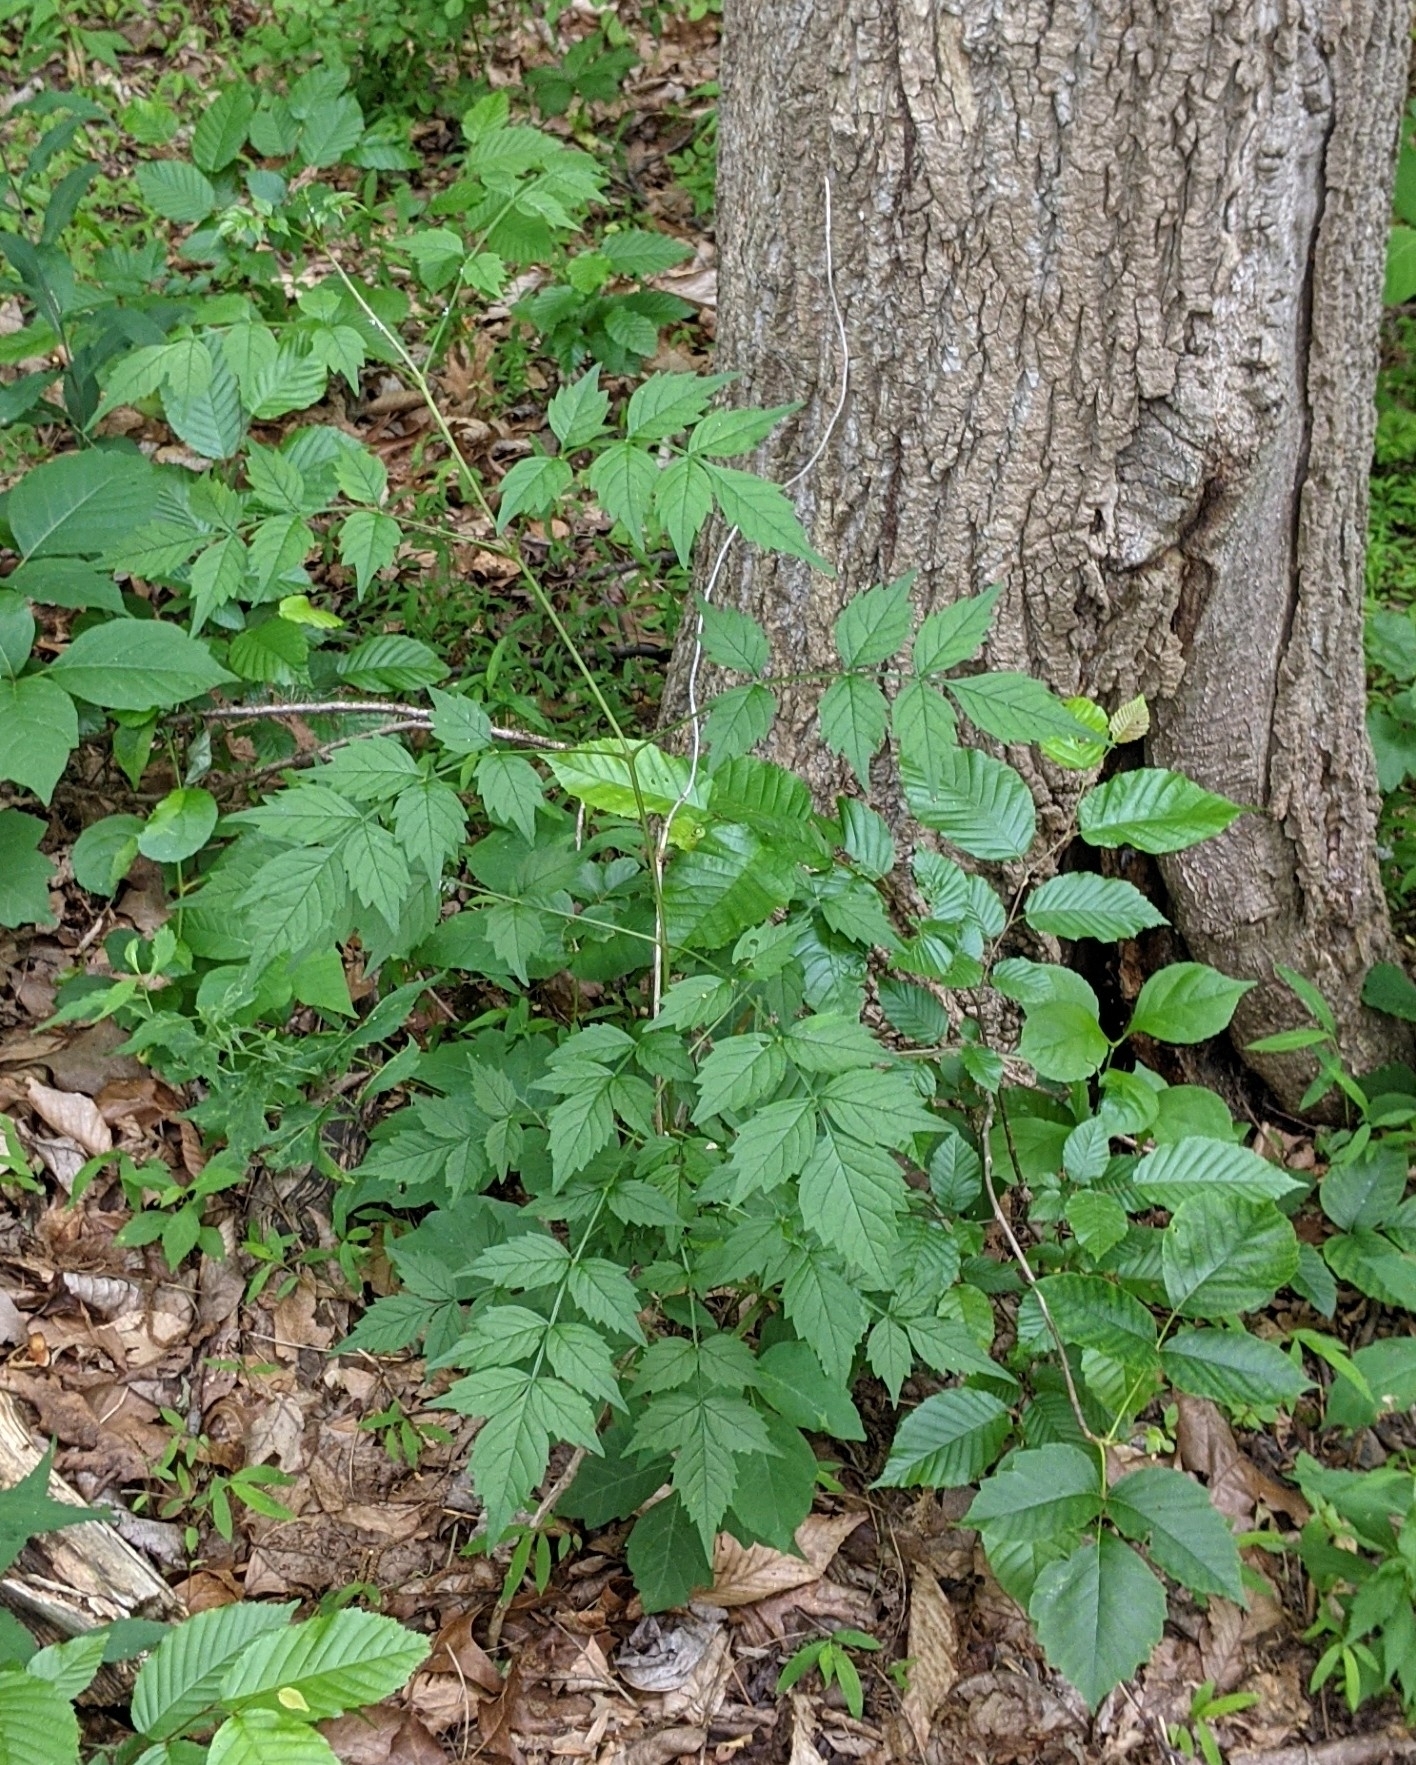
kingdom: Plantae
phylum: Tracheophyta
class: Magnoliopsida
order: Lamiales
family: Bignoniaceae
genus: Campsis
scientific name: Campsis radicans
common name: Trumpet-creeper
